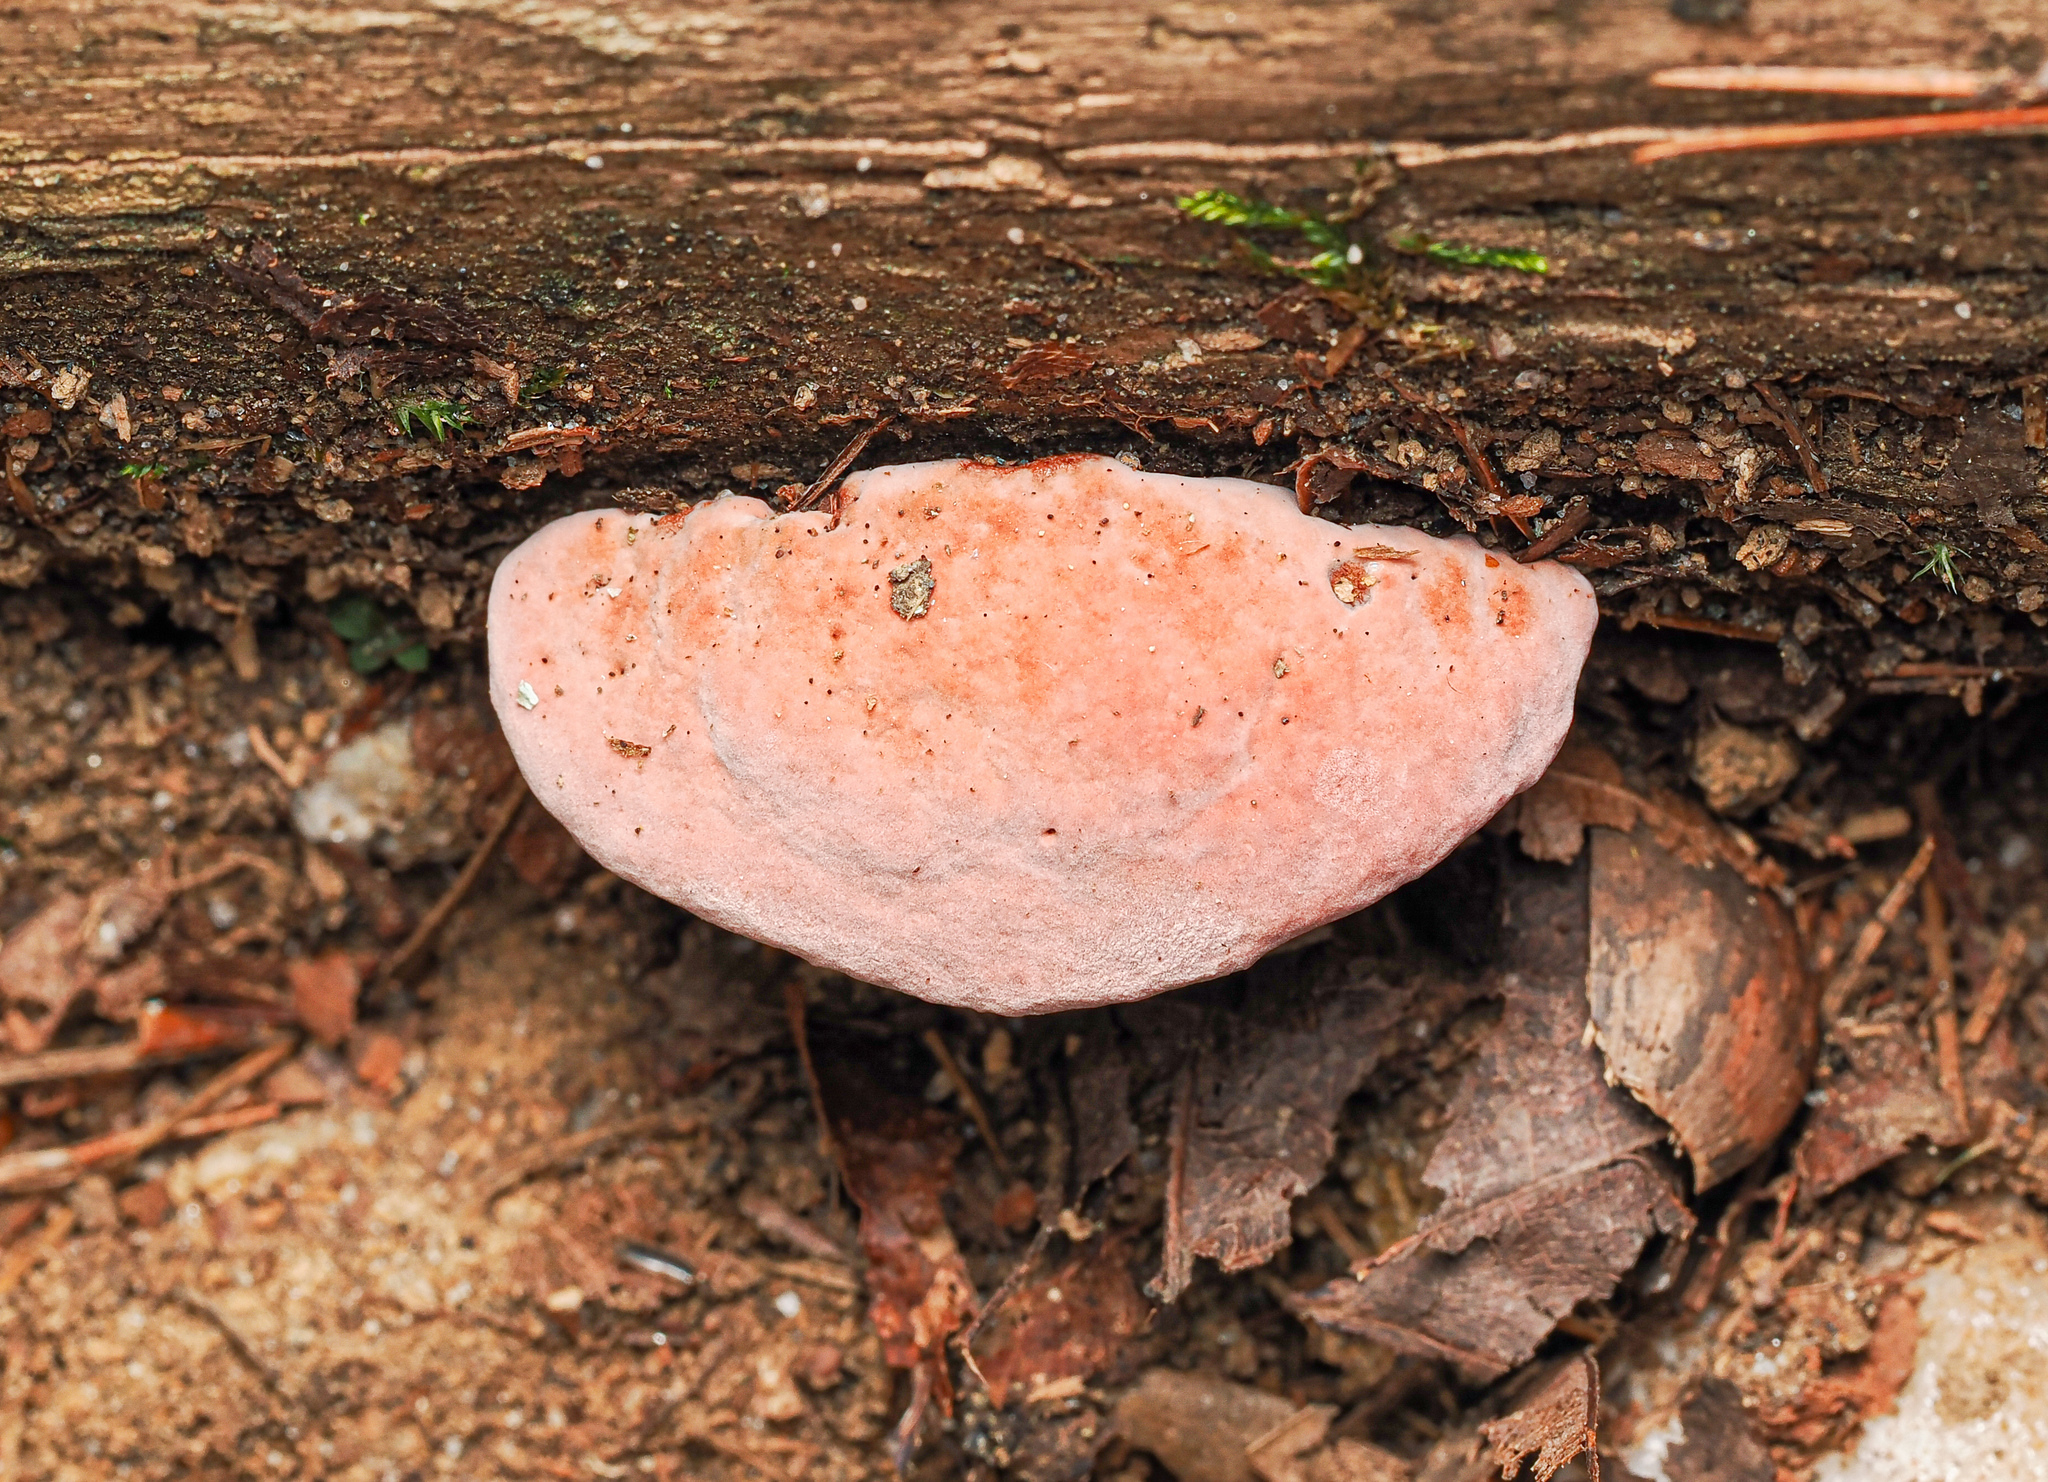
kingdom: Fungi
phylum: Basidiomycota
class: Agaricomycetes
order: Polyporales
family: Fomitopsidaceae
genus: Rhodofomes
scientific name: Rhodofomes cajanderi
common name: Rosy conk
